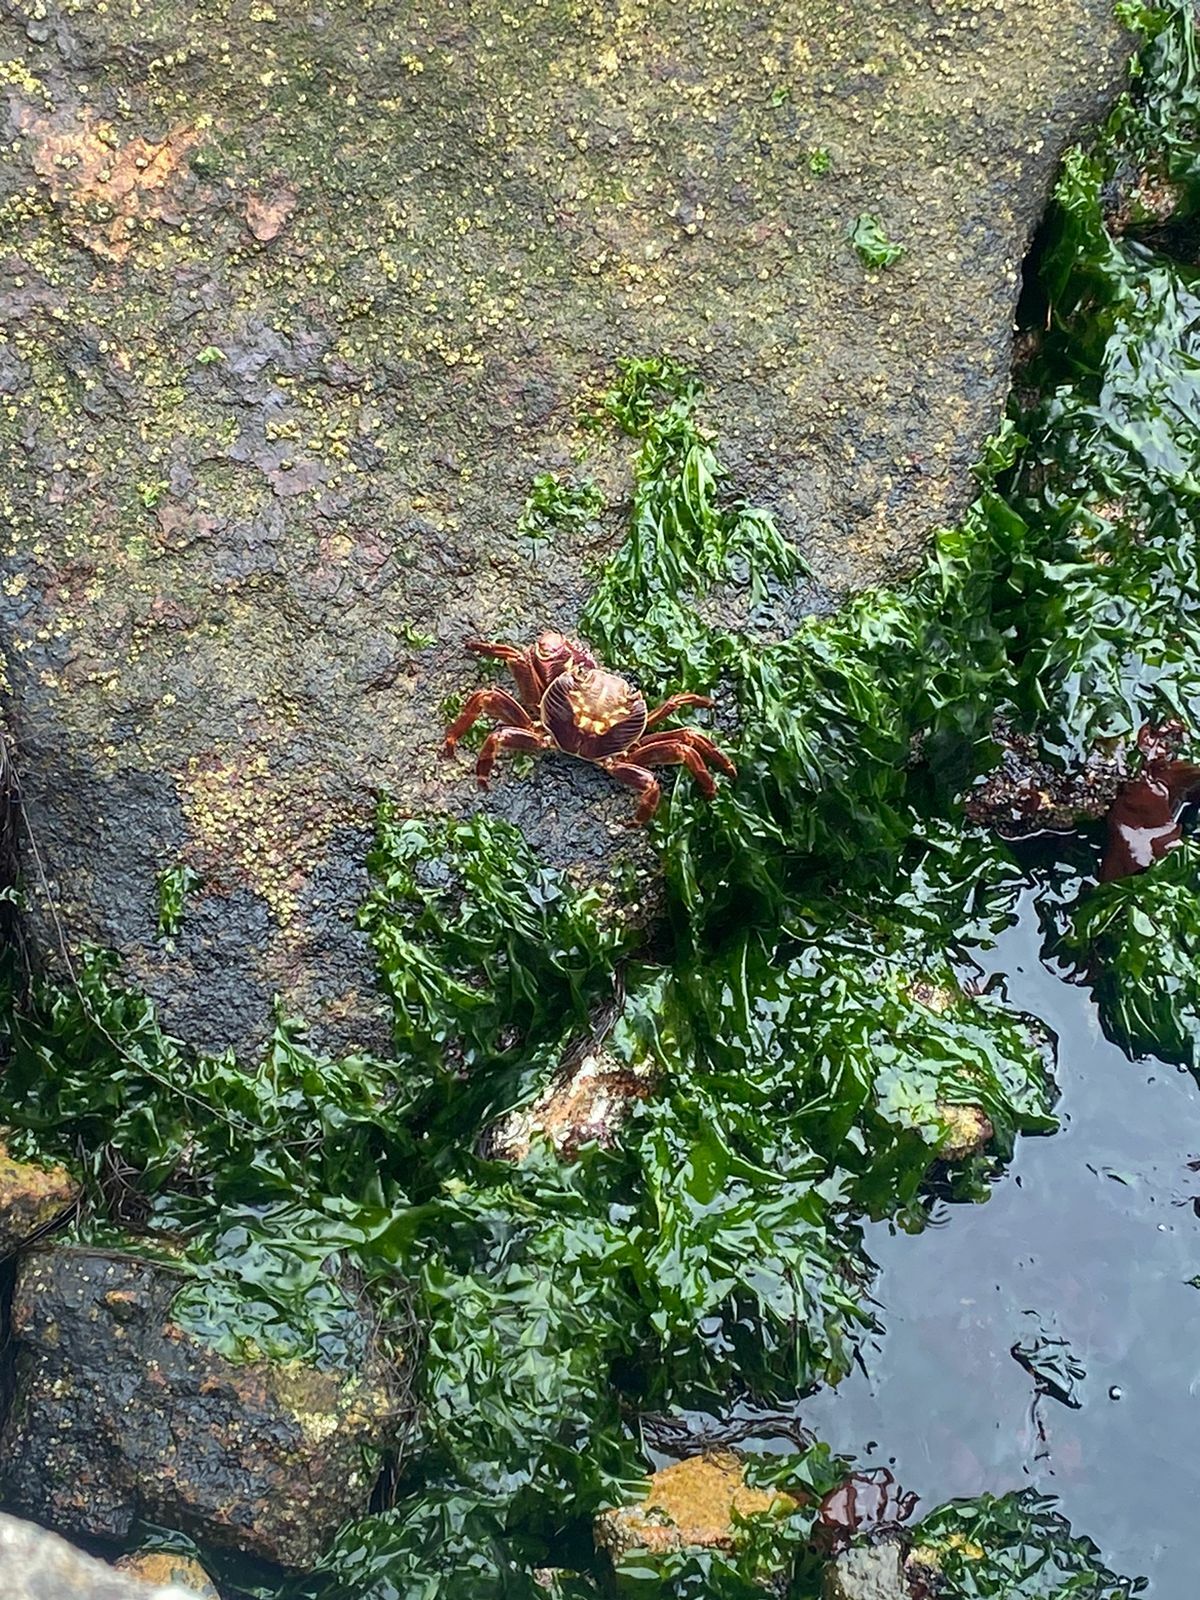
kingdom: Animalia
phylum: Arthropoda
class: Malacostraca
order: Decapoda
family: Grapsidae
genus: Leptograpsus
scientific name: Leptograpsus variegatus
